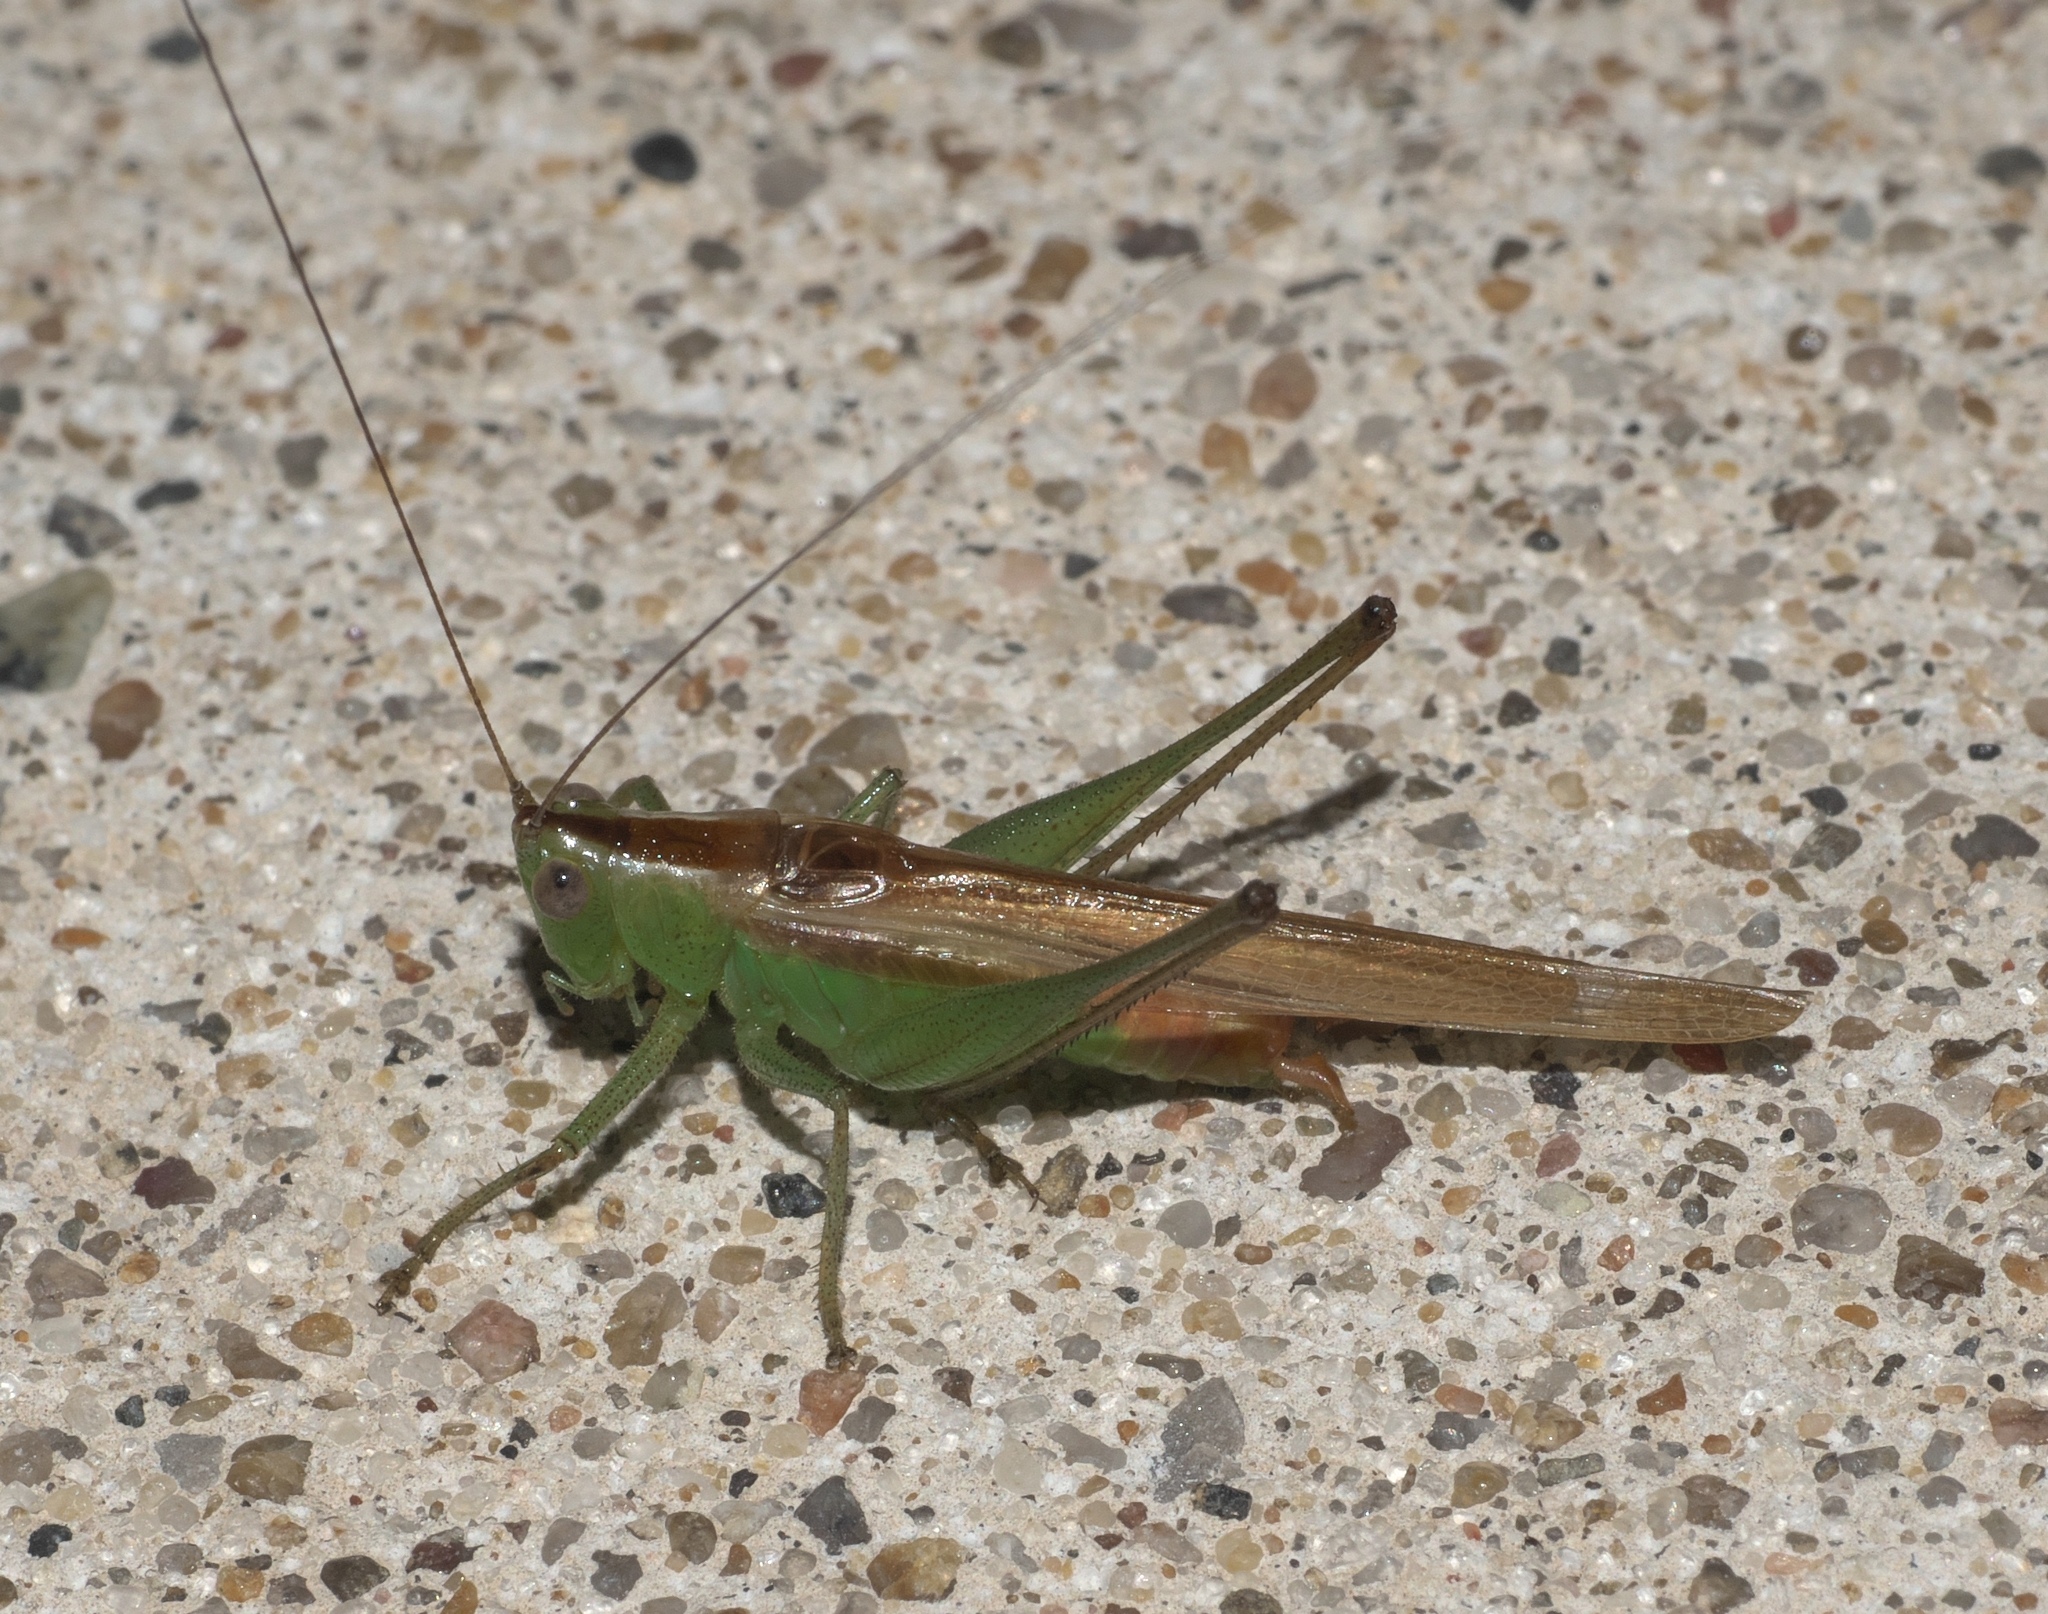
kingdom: Animalia
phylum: Arthropoda
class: Insecta
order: Orthoptera
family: Tettigoniidae
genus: Conocephalus
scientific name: Conocephalus brevipennis
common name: Short-winged meadow katydid
